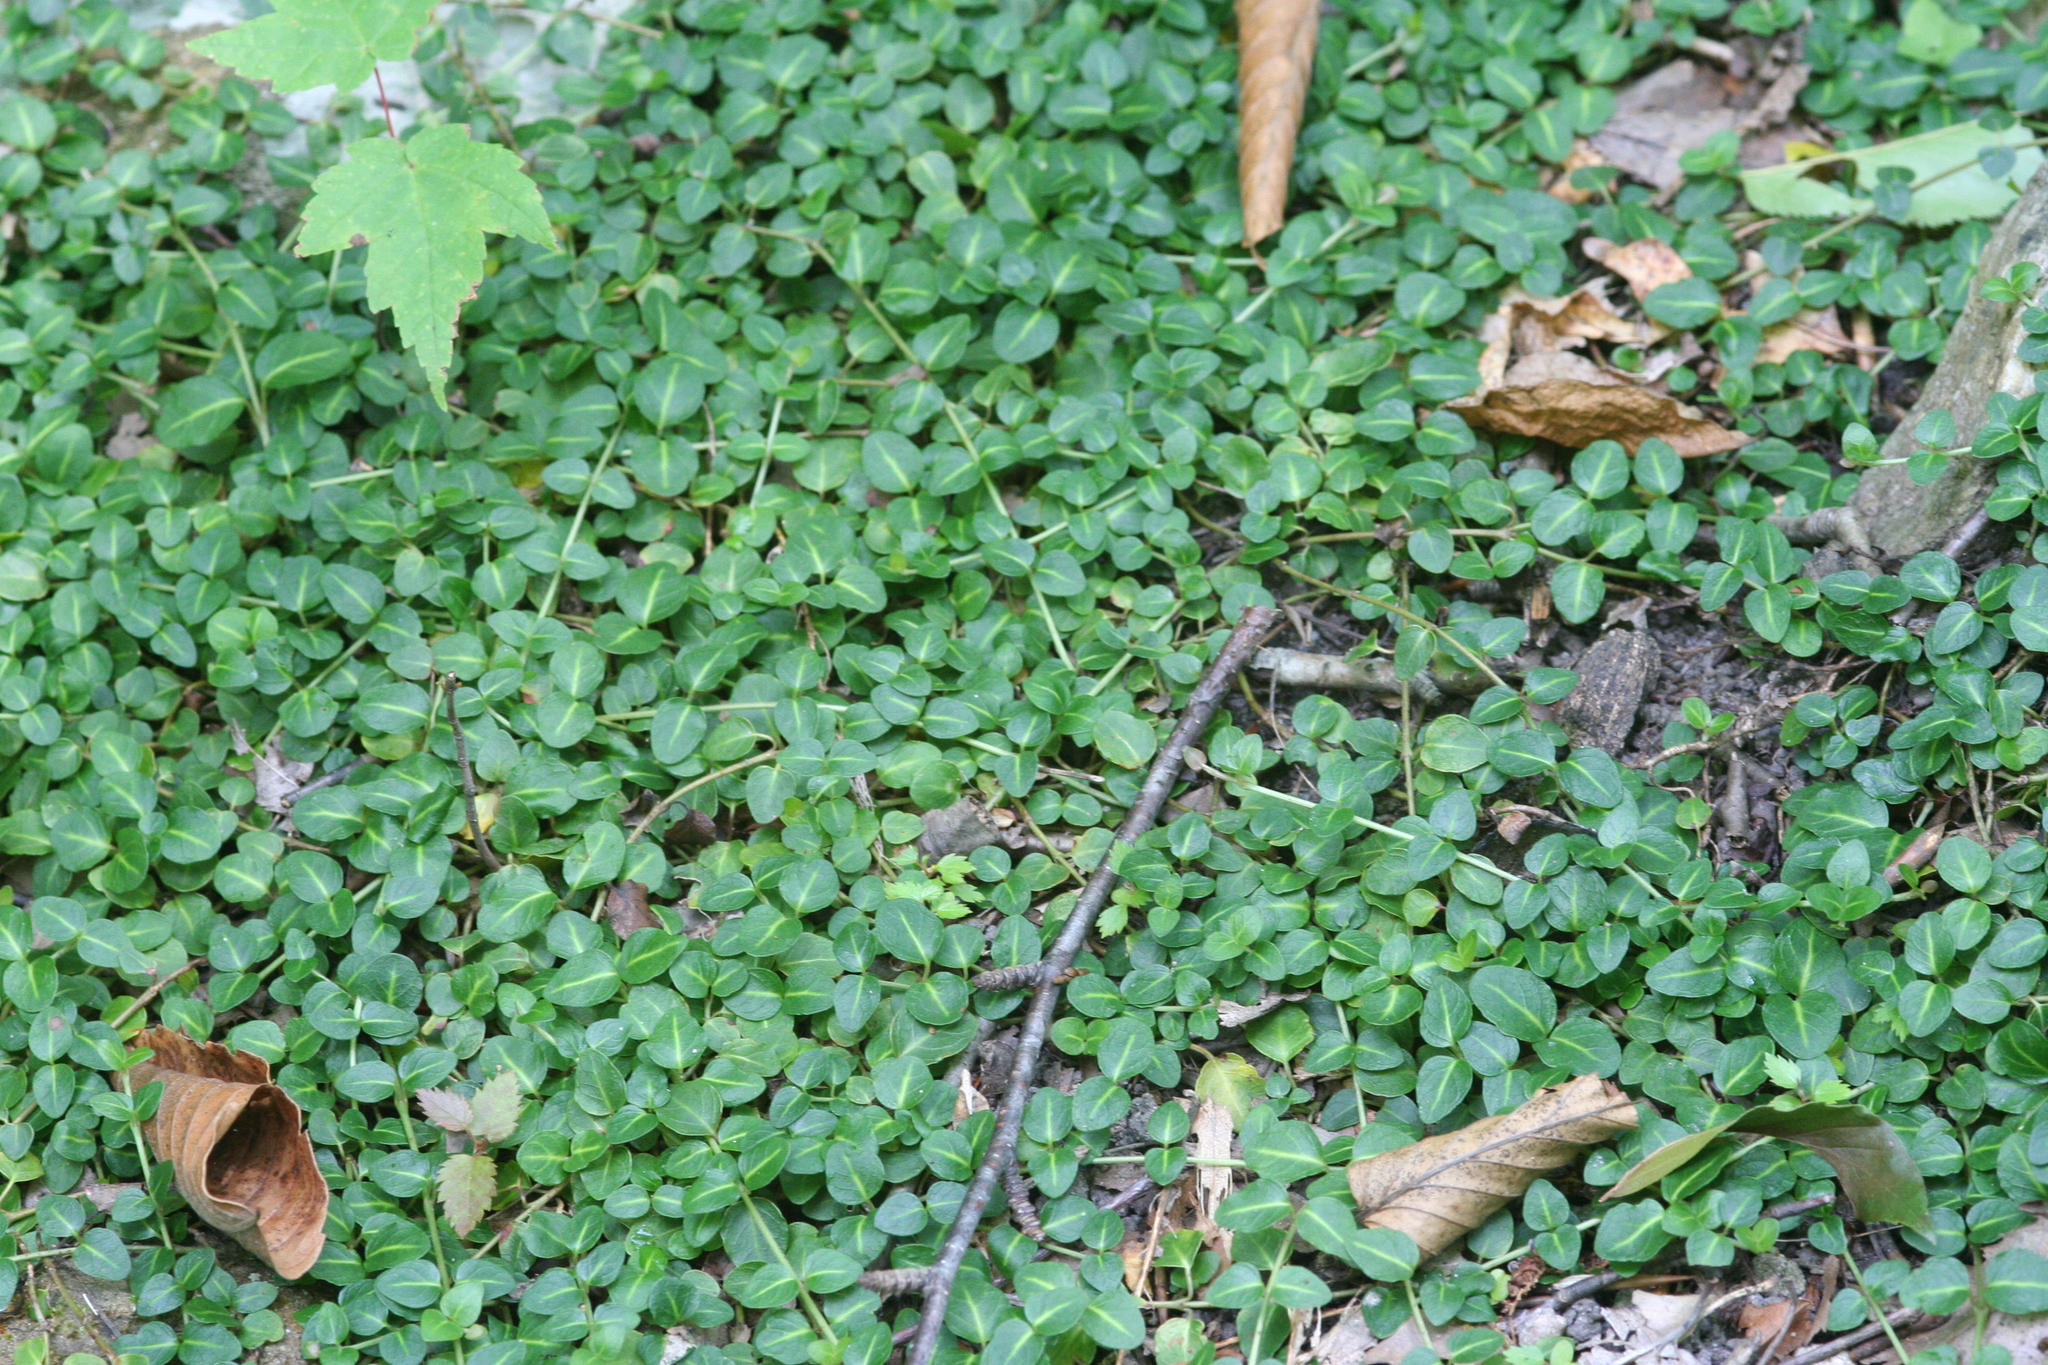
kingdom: Plantae
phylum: Tracheophyta
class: Magnoliopsida
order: Gentianales
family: Rubiaceae
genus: Mitchella
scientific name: Mitchella repens
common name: Partridge-berry
